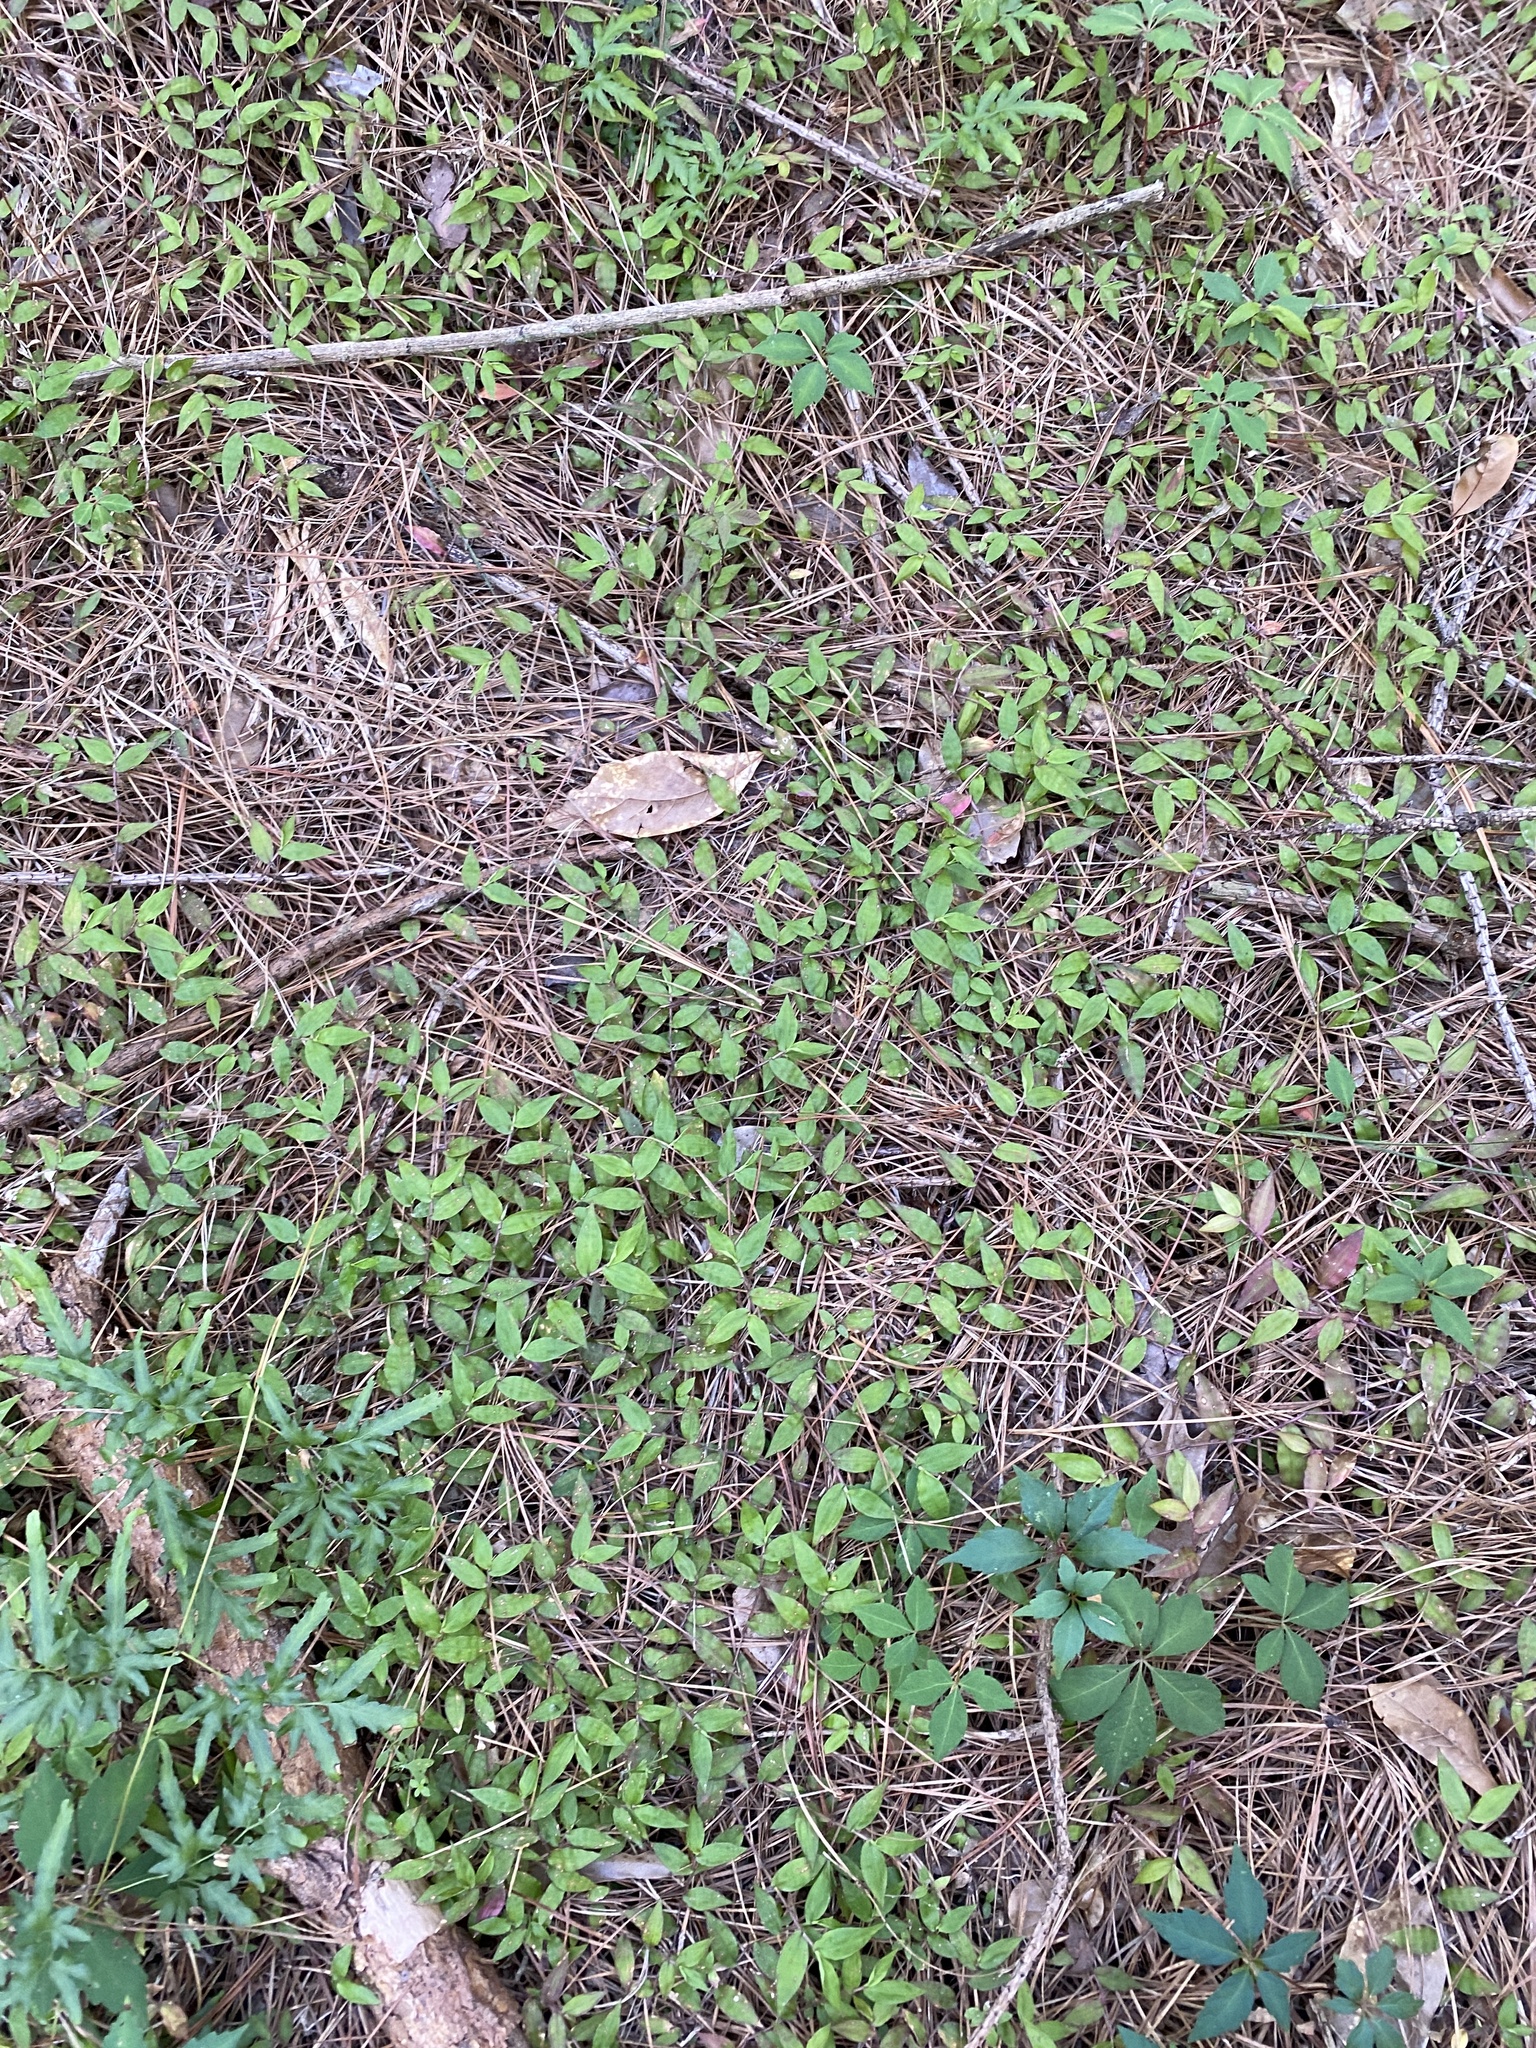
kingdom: Plantae
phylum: Tracheophyta
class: Liliopsida
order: Poales
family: Poaceae
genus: Oplismenus
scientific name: Oplismenus hirtellus
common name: Basketgrass
